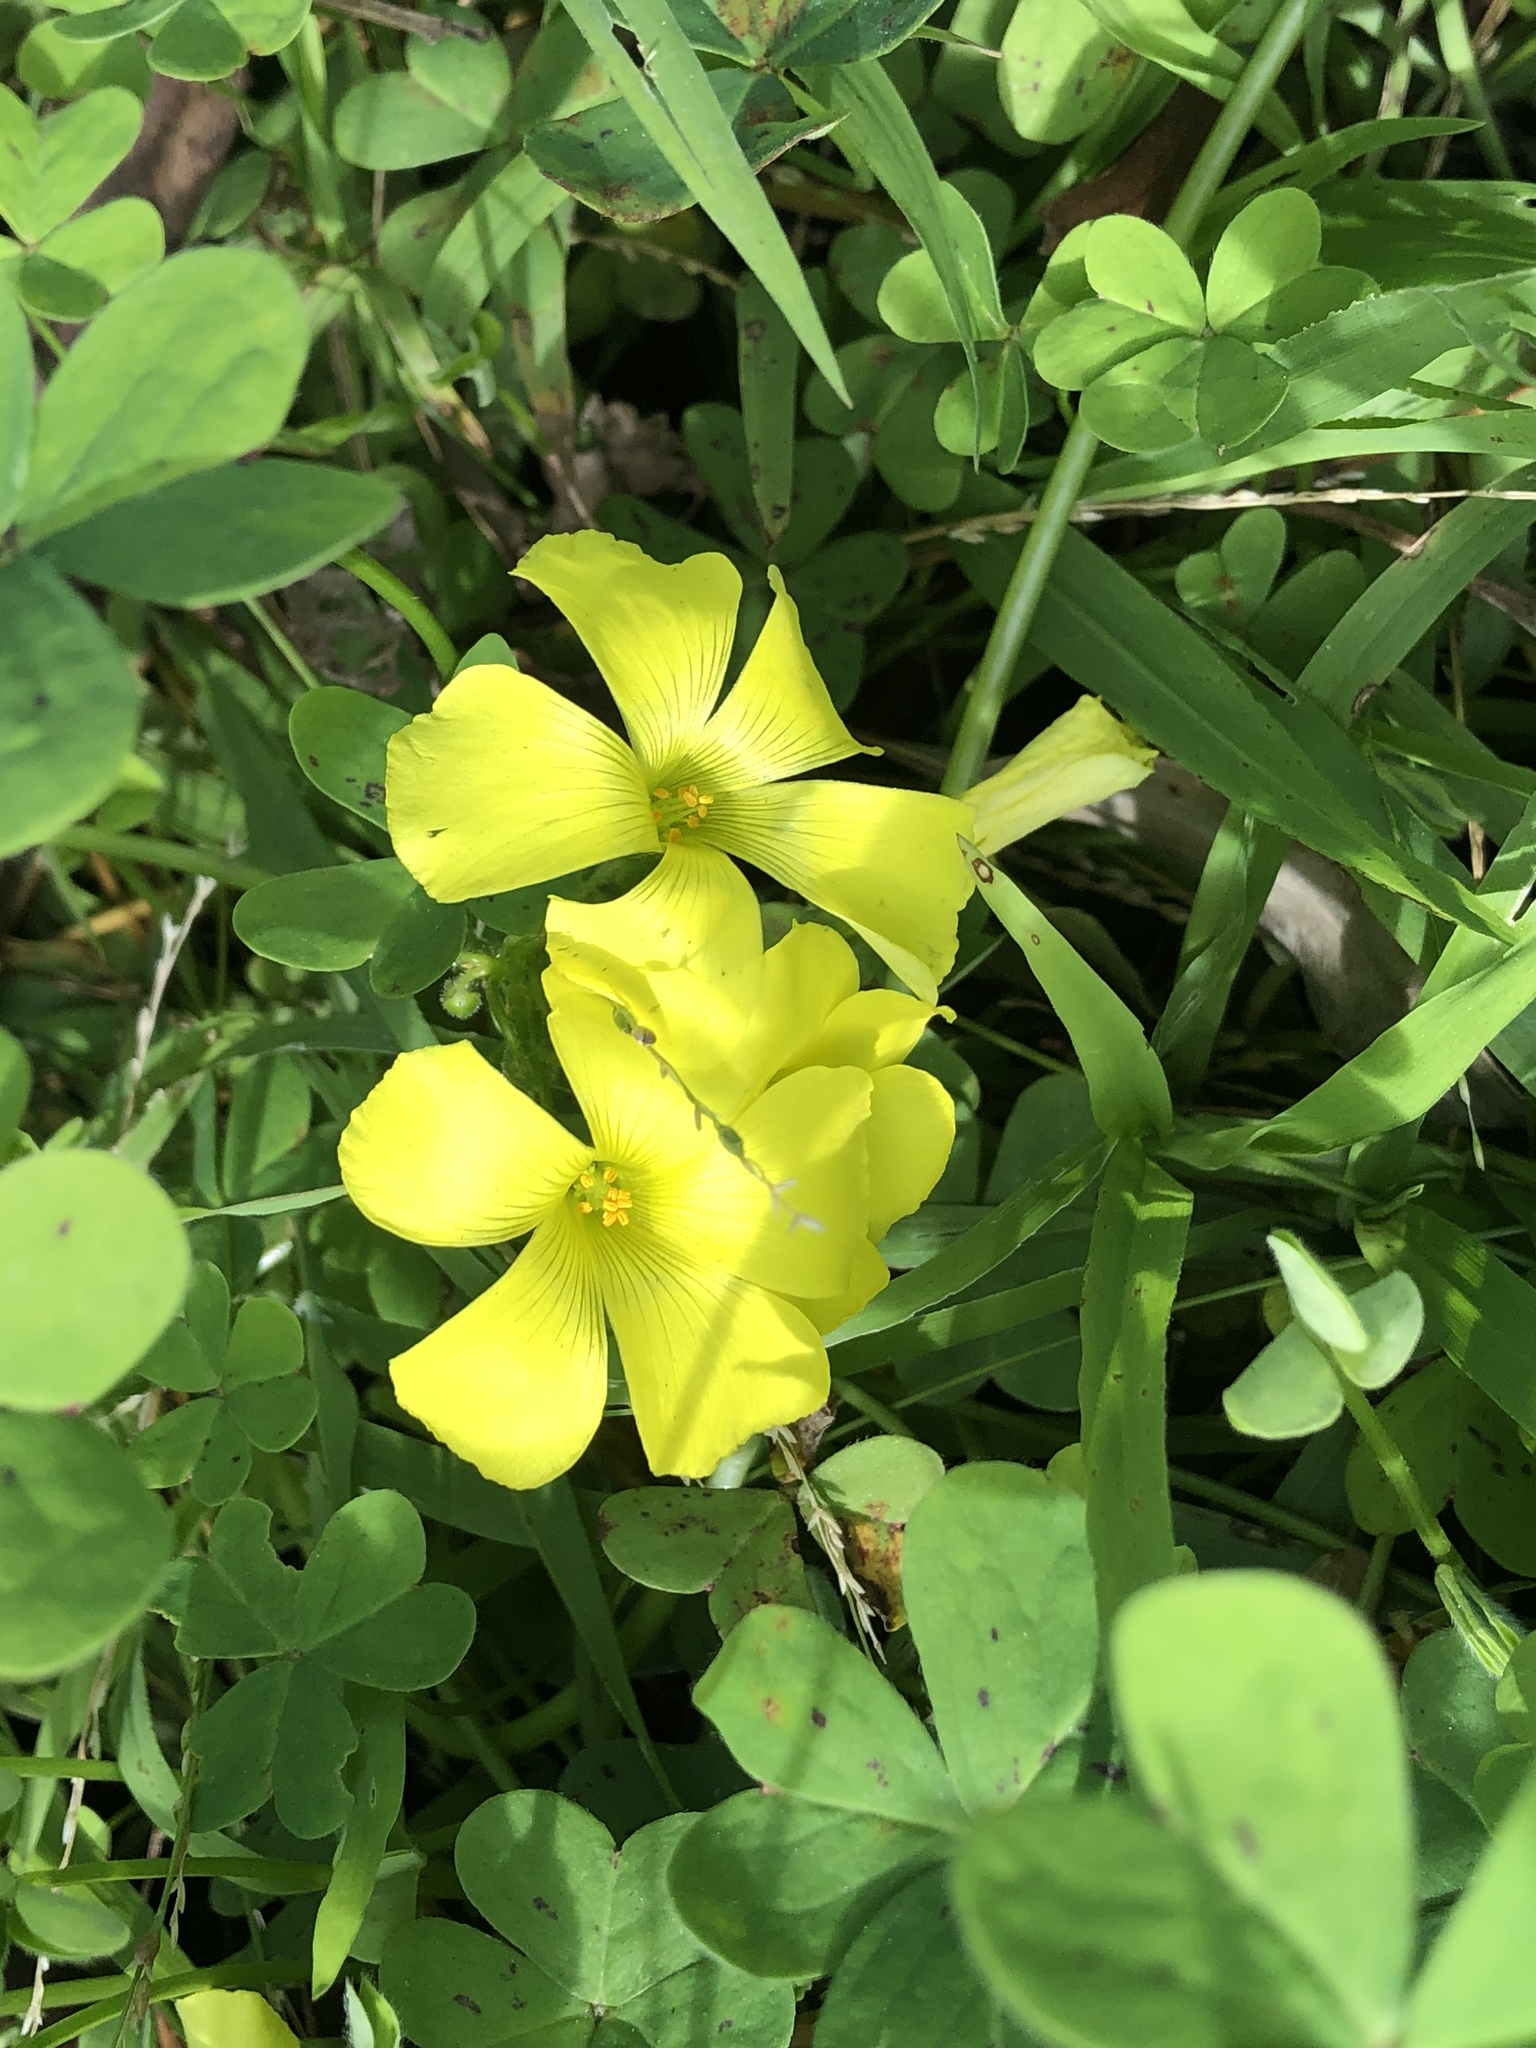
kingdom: Plantae
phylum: Tracheophyta
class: Magnoliopsida
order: Oxalidales
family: Oxalidaceae
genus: Oxalis
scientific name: Oxalis pes-caprae
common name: Bermuda-buttercup
